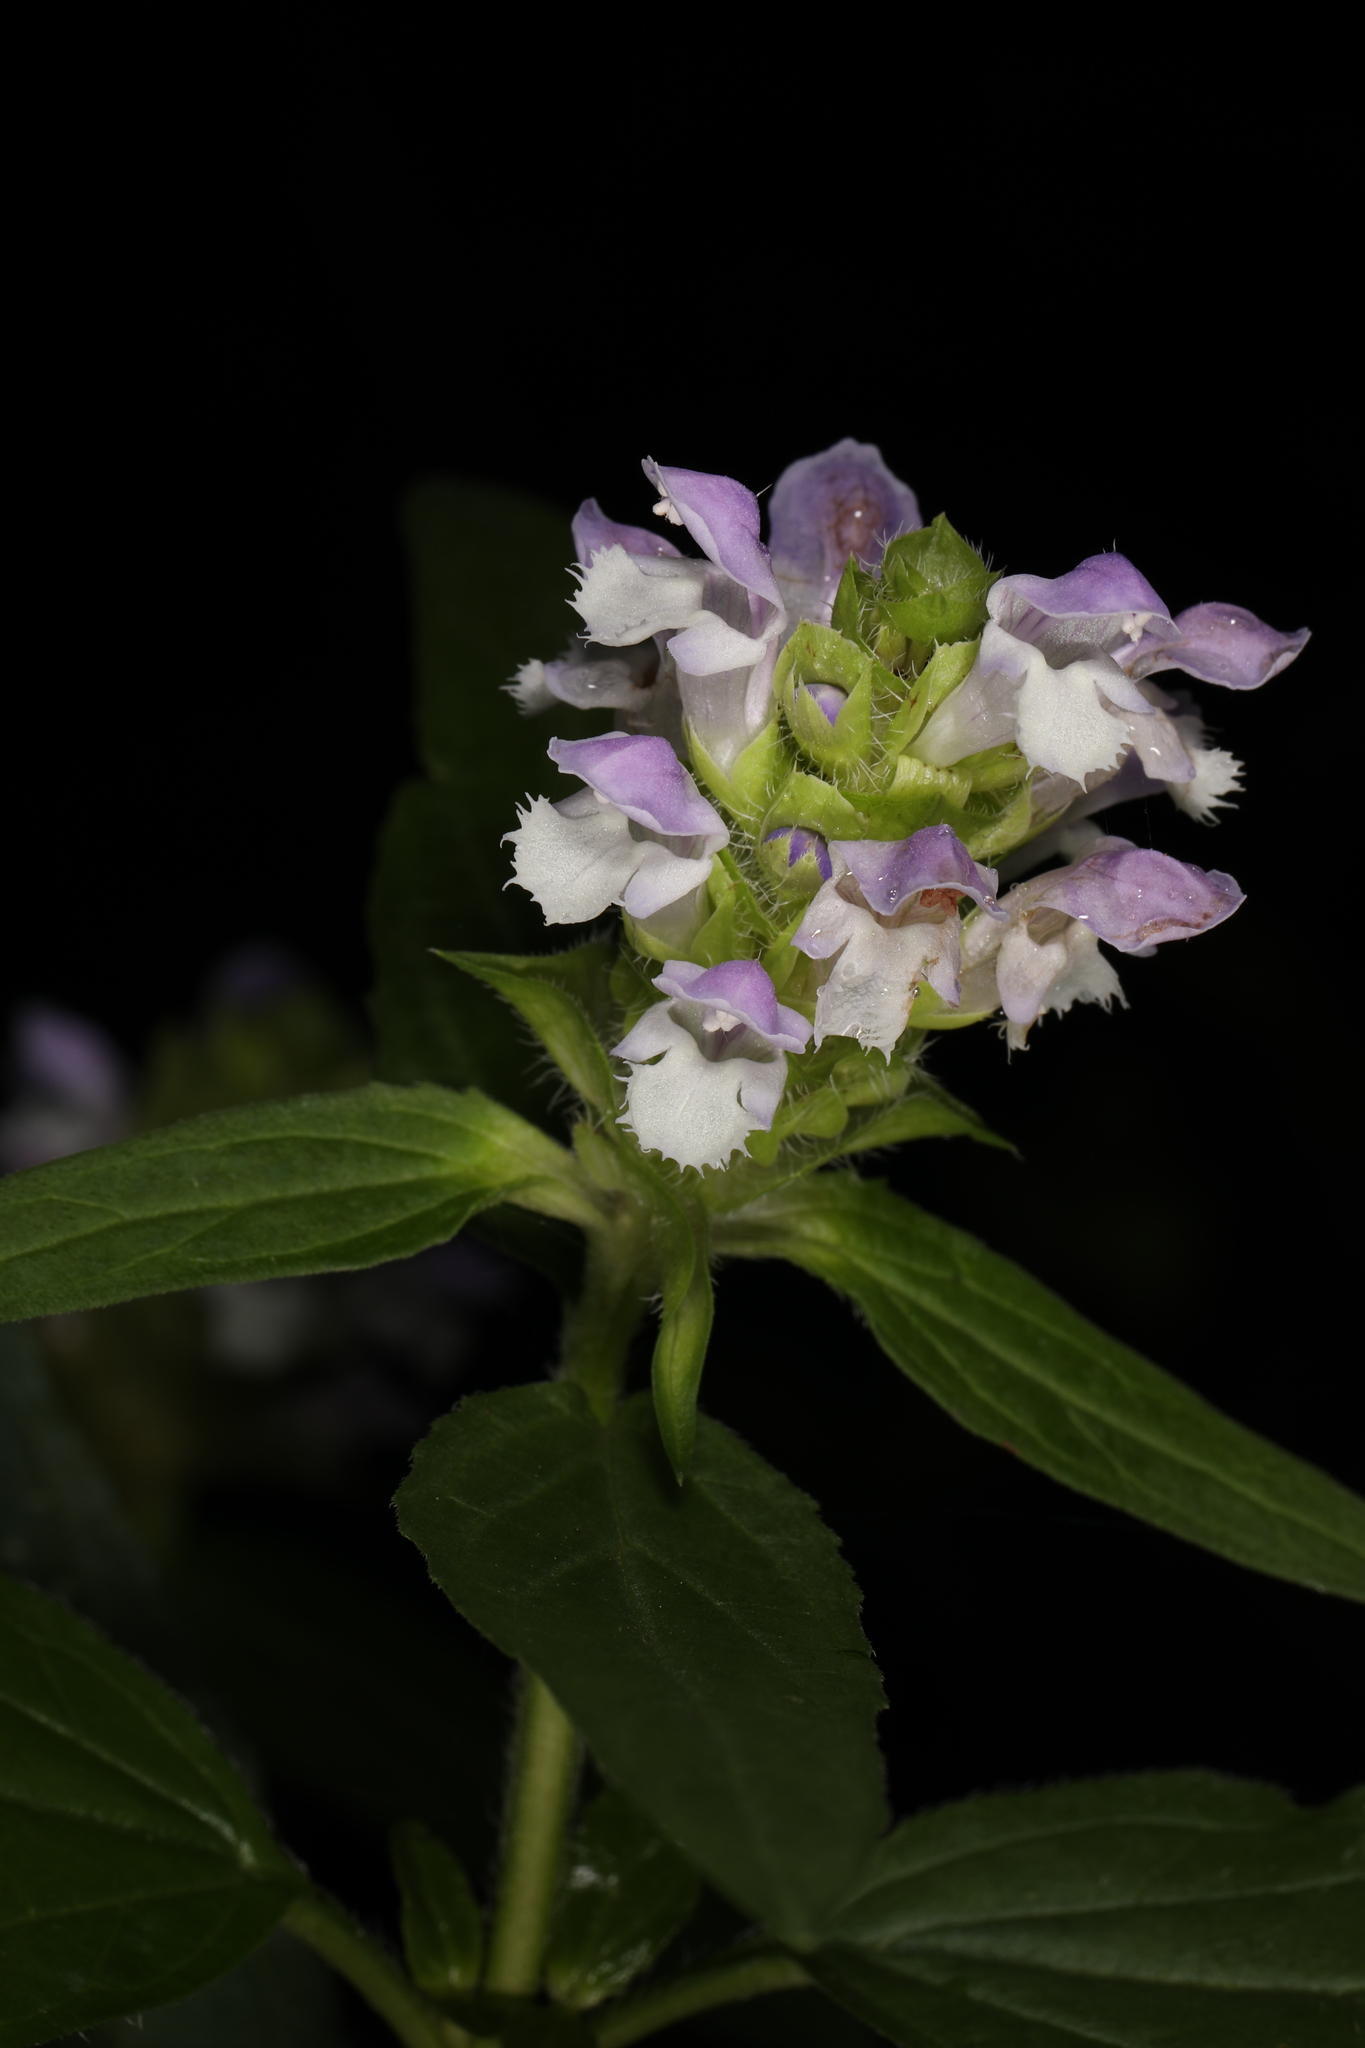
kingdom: Plantae
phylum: Tracheophyta
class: Magnoliopsida
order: Lamiales
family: Lamiaceae
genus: Prunella
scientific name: Prunella vulgaris
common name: Heal-all
